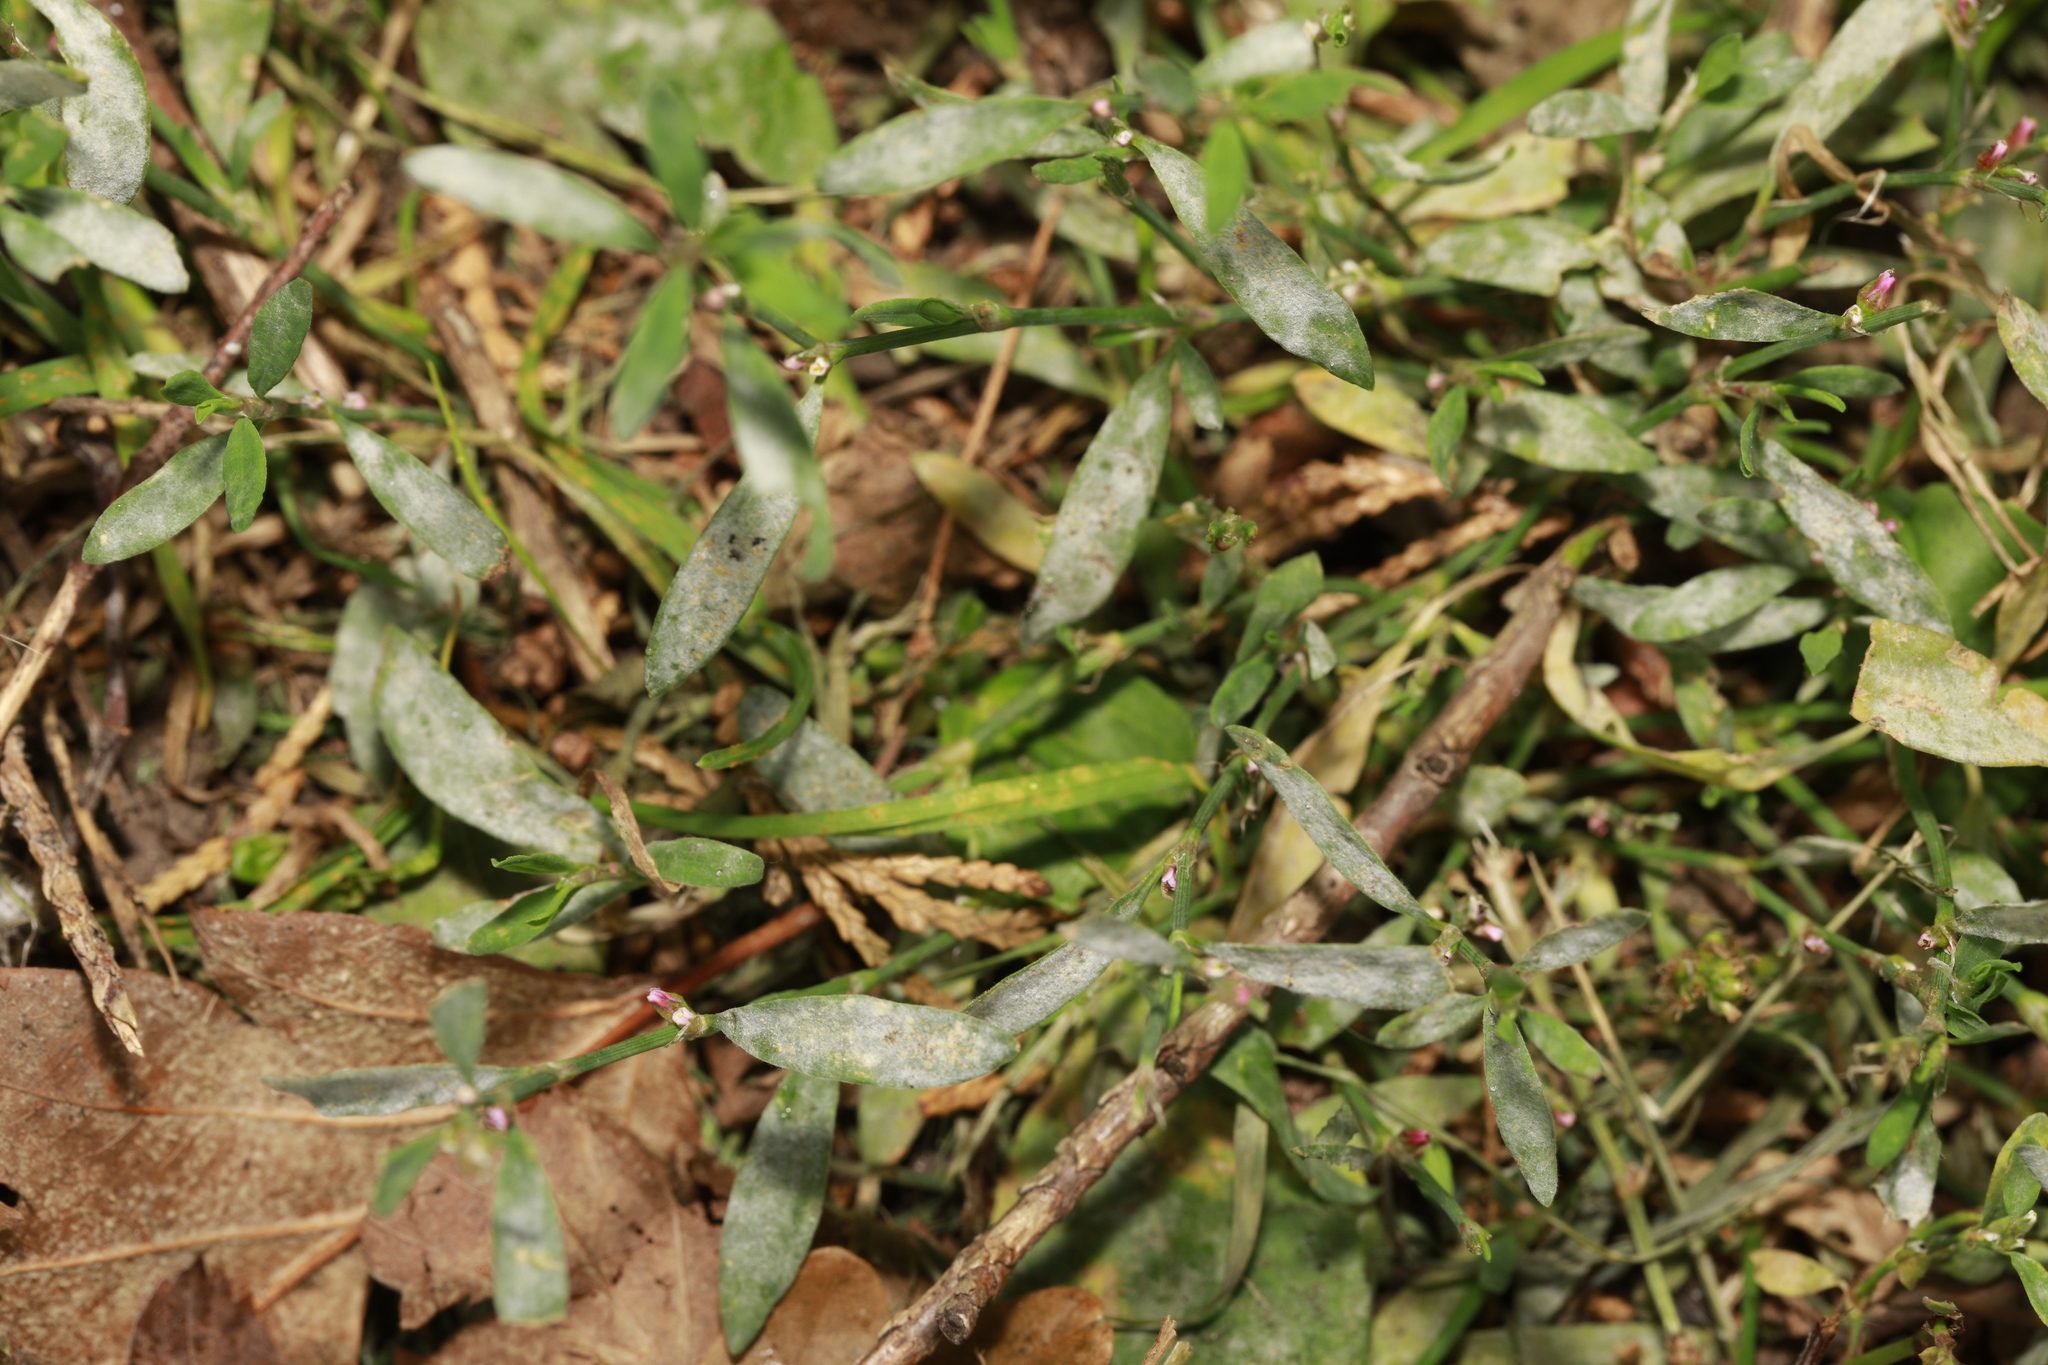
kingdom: Plantae
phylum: Tracheophyta
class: Magnoliopsida
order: Caryophyllales
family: Polygonaceae
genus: Polygonum
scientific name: Polygonum aviculare
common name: Prostrate knotweed
